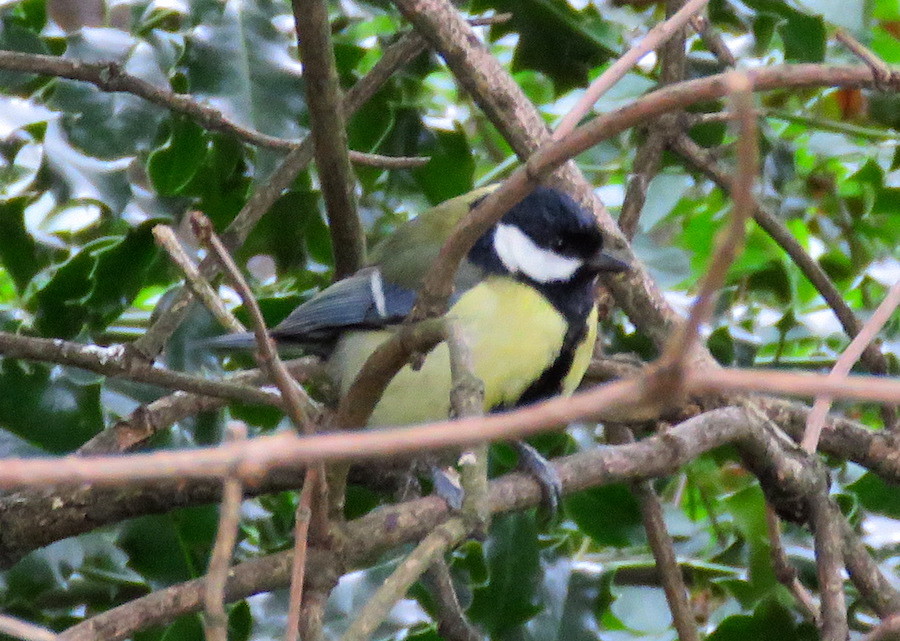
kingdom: Animalia
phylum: Chordata
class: Aves
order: Passeriformes
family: Paridae
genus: Parus
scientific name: Parus major
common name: Great tit
